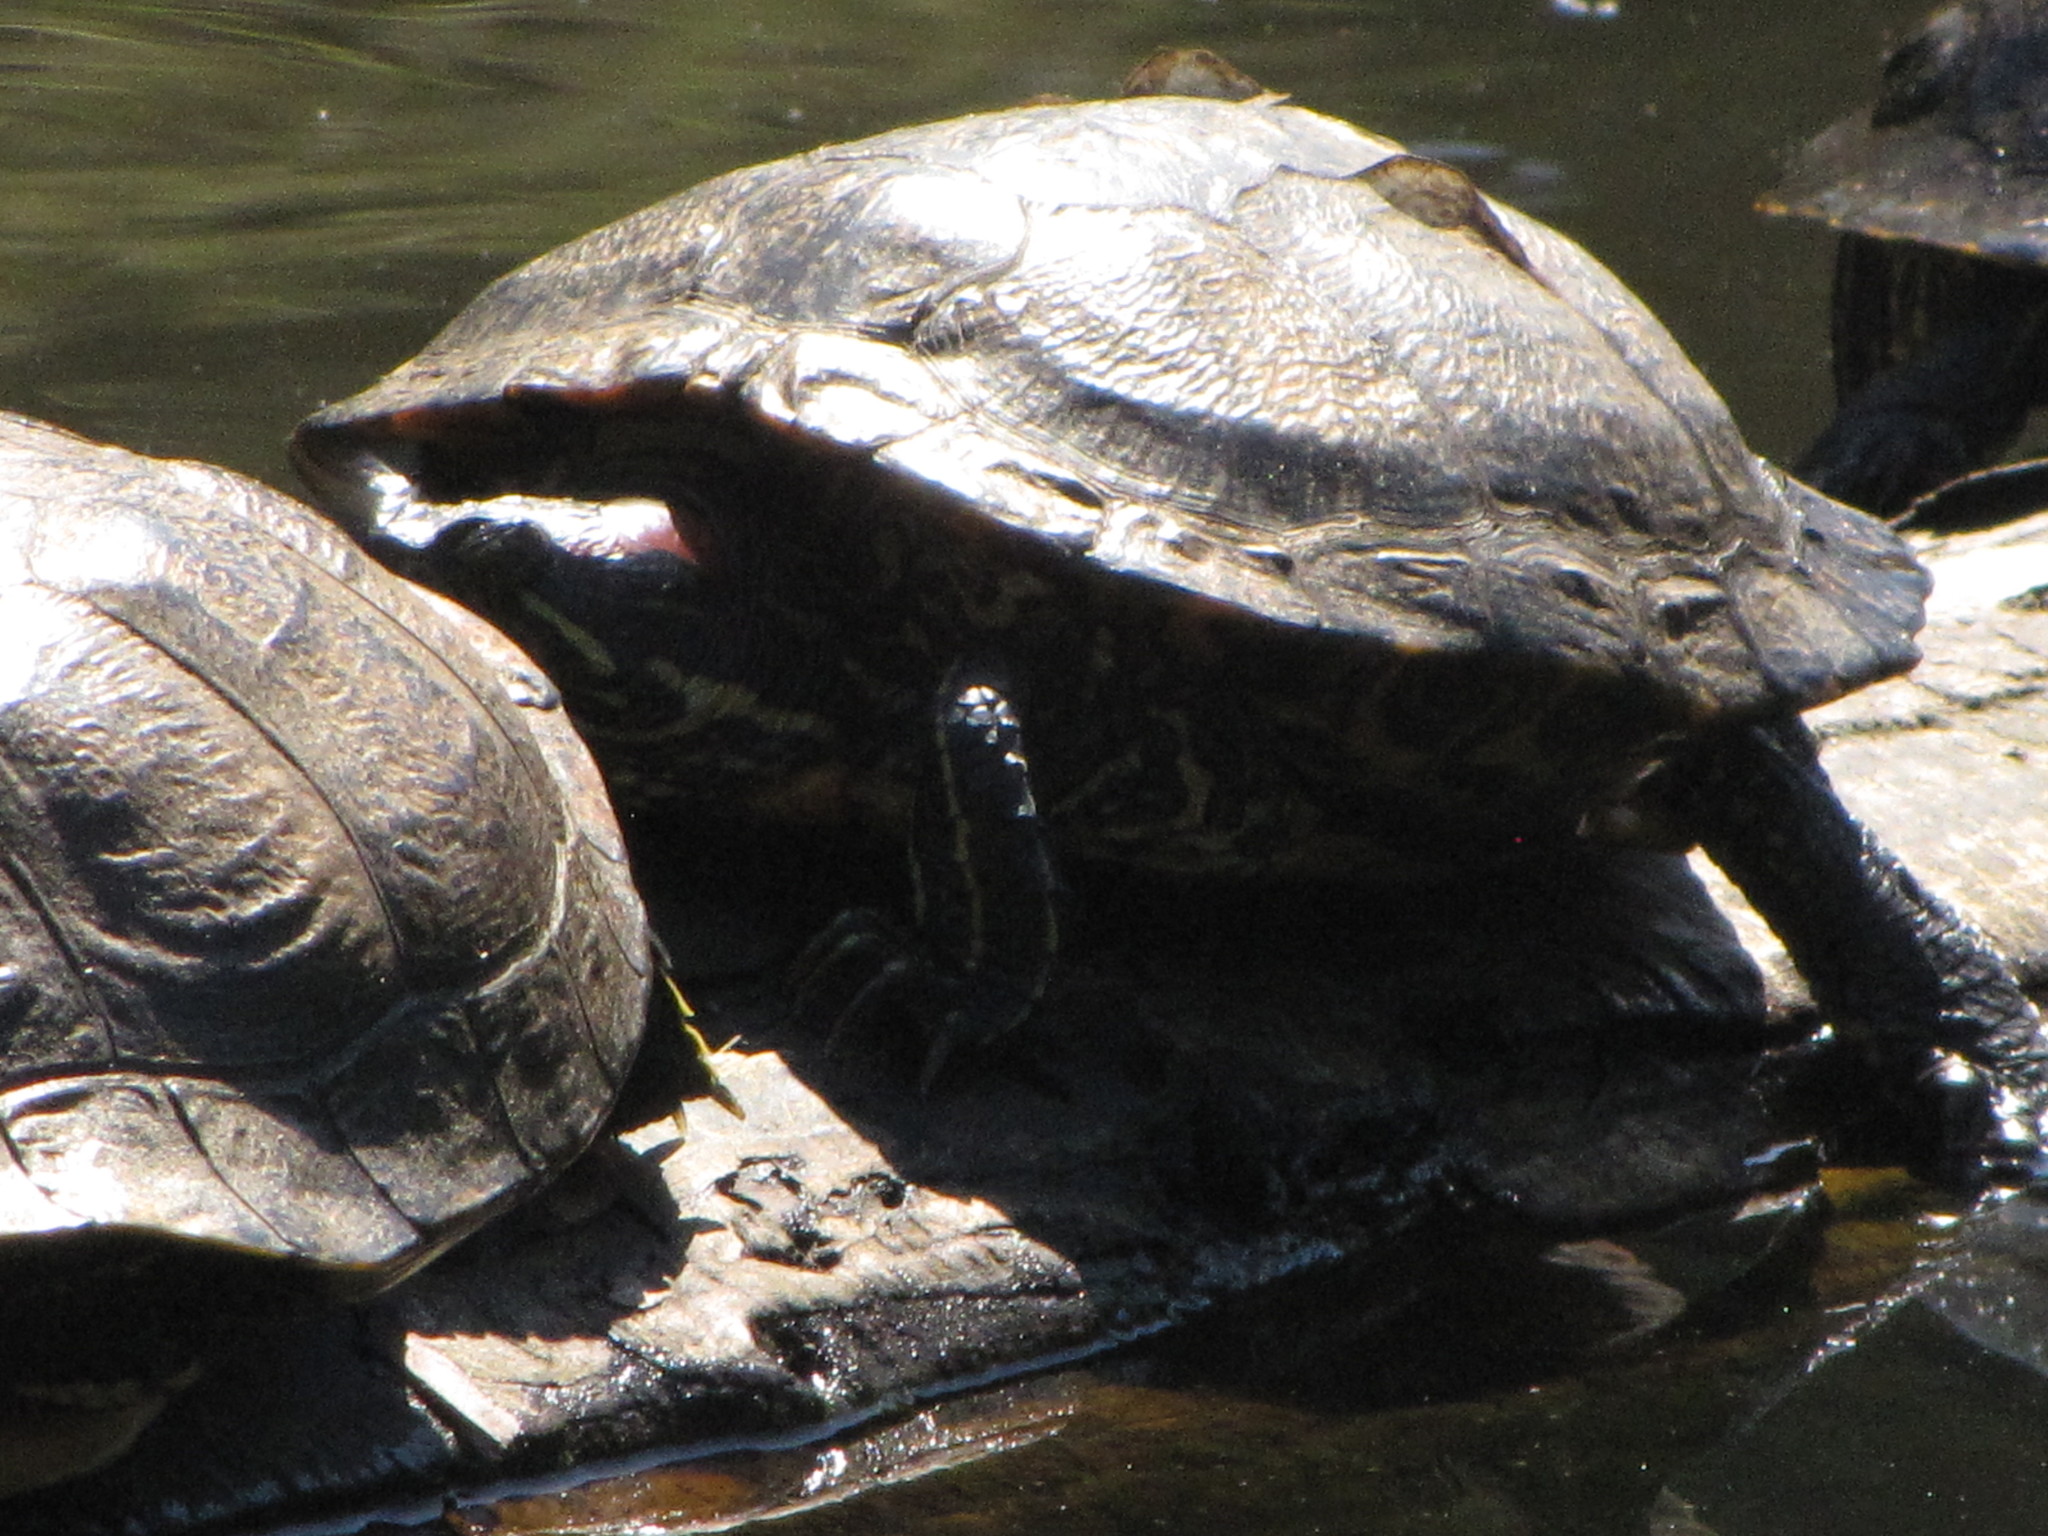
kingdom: Animalia
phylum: Chordata
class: Testudines
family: Emydidae
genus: Trachemys
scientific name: Trachemys scripta
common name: Slider
